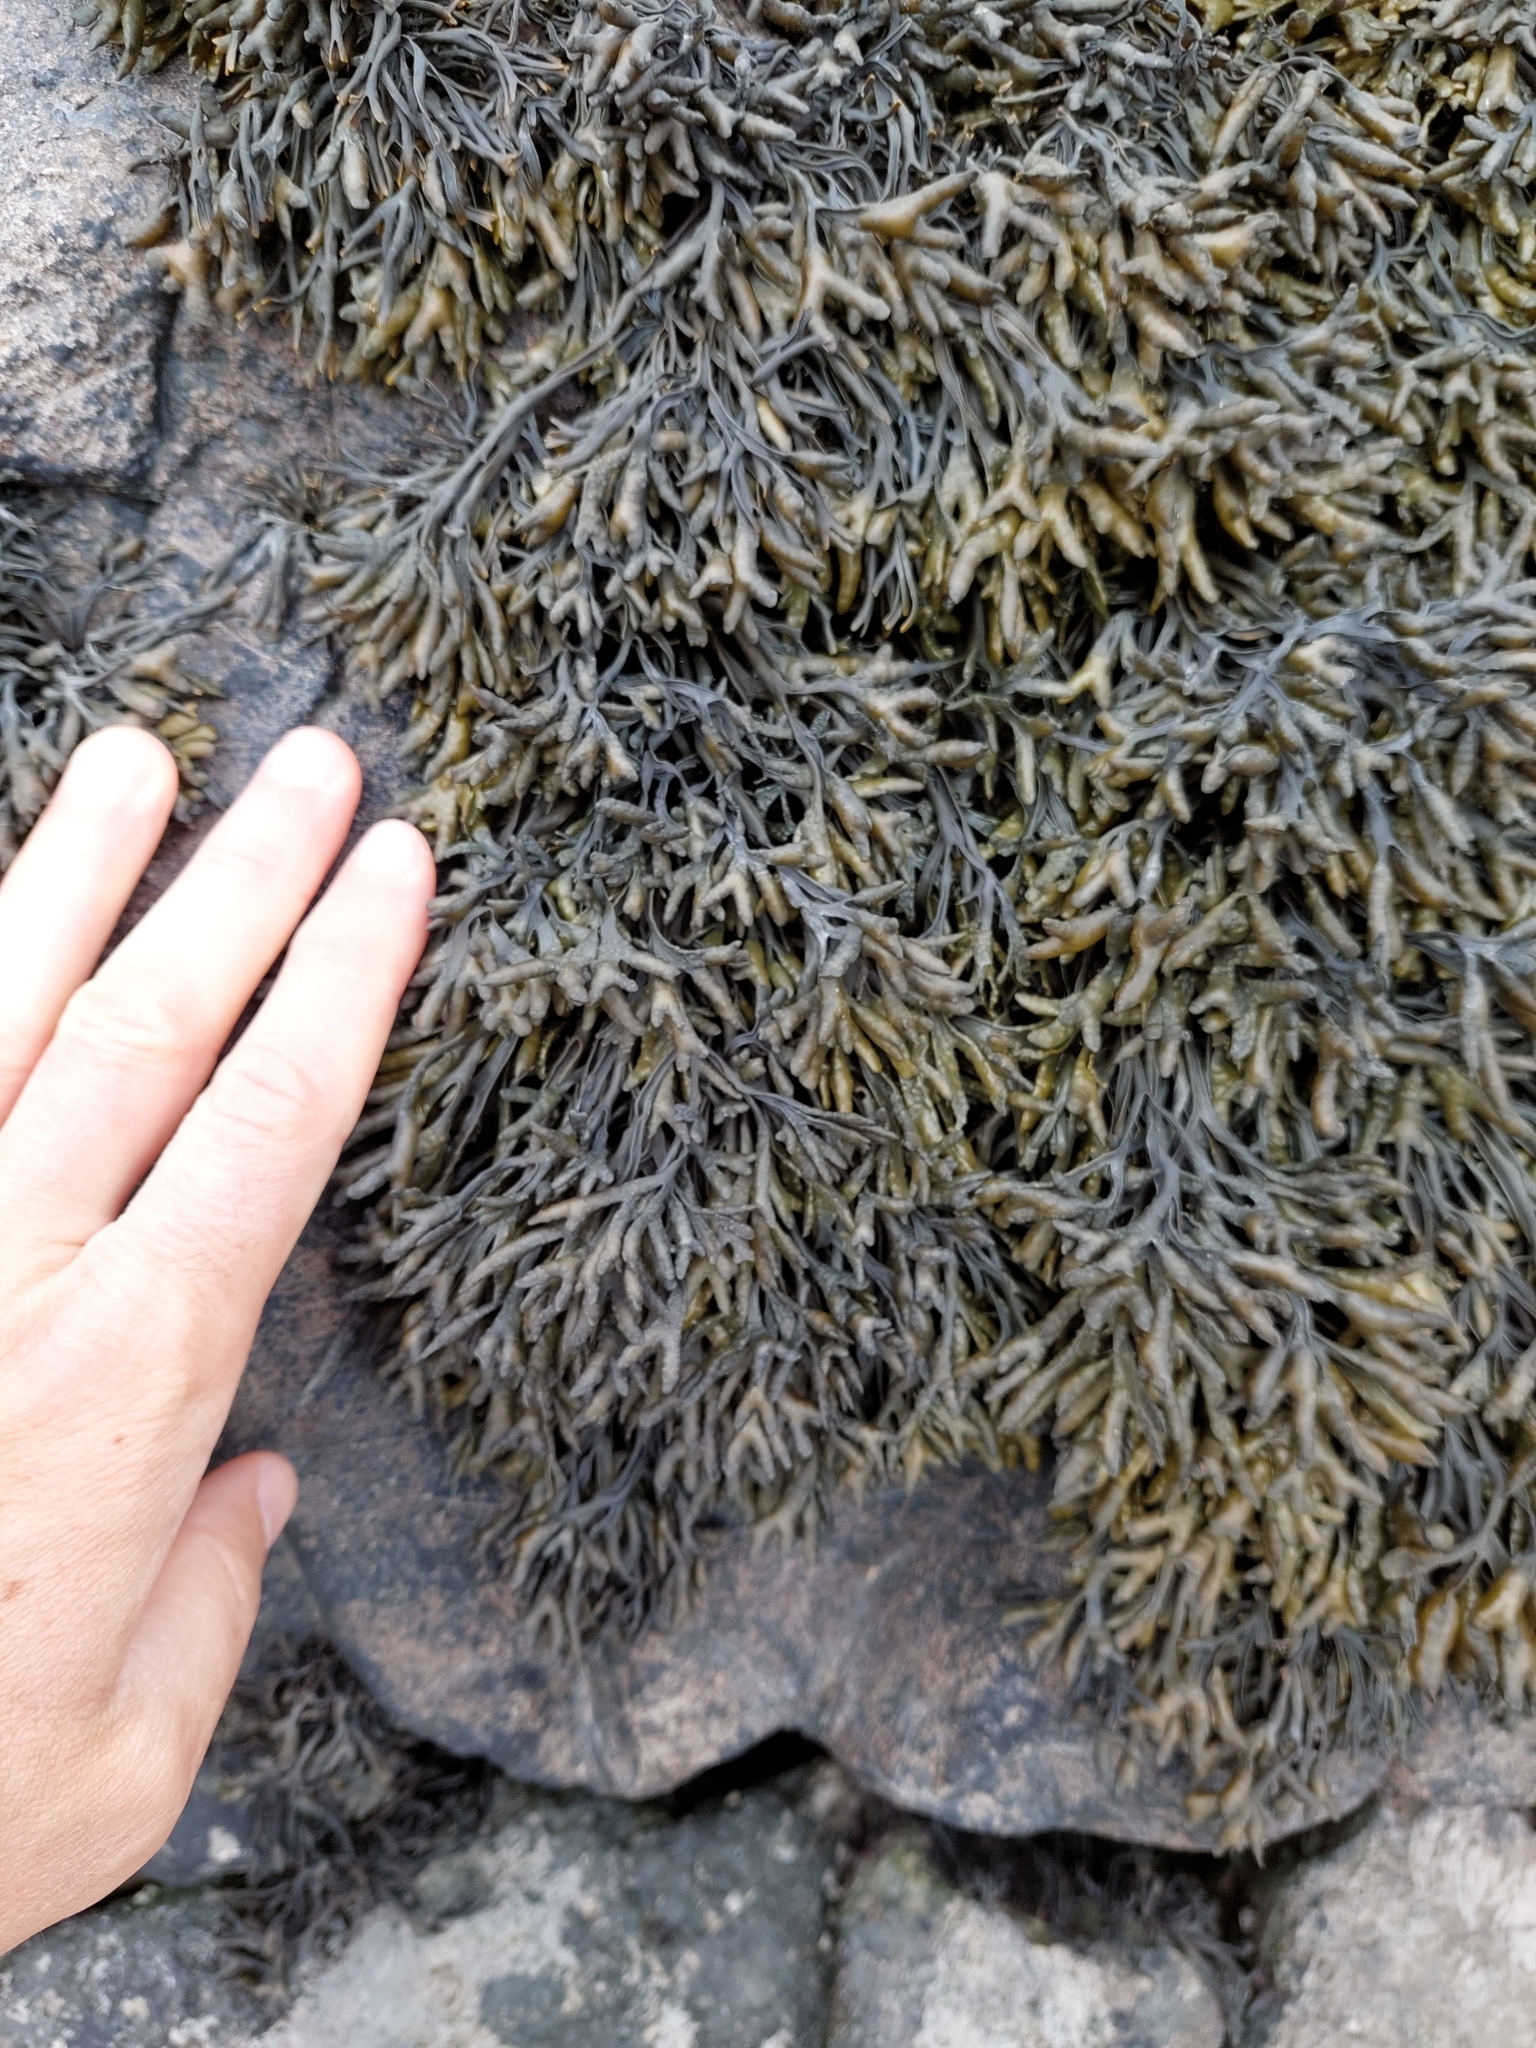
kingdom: Chromista
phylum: Ochrophyta
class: Phaeophyceae
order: Fucales
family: Fucaceae
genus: Pelvetia
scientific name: Pelvetia canaliculata
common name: Channelled wrack
